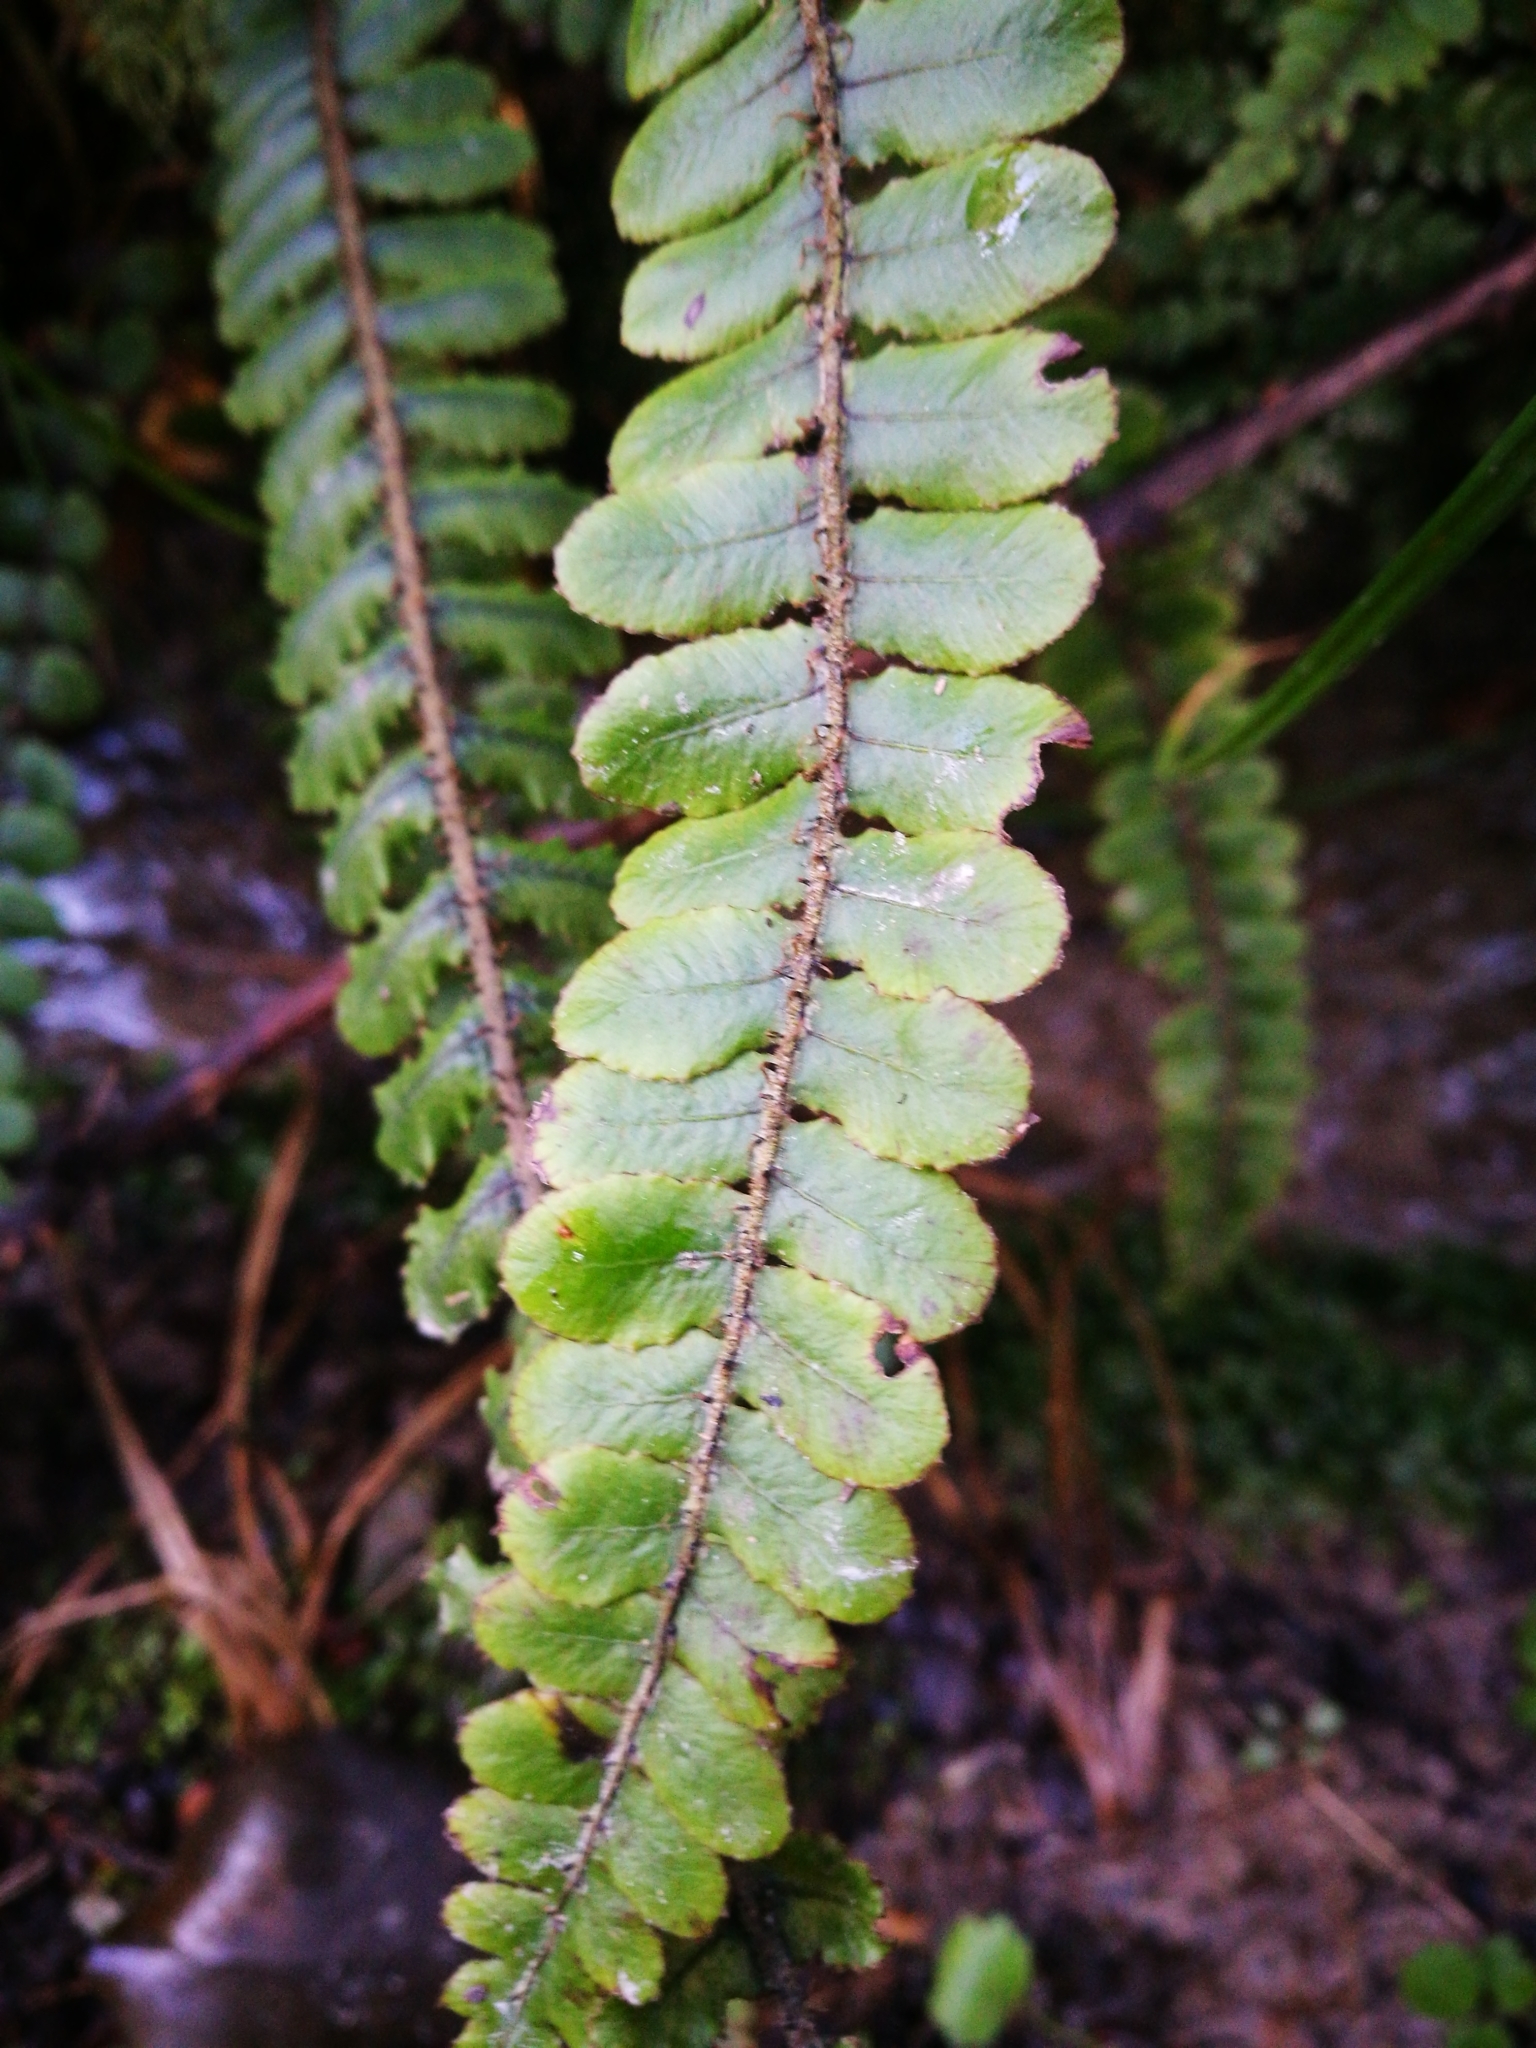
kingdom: Plantae
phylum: Tracheophyta
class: Polypodiopsida
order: Polypodiales
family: Blechnaceae
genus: Cranfillia
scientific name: Cranfillia fluviatilis
